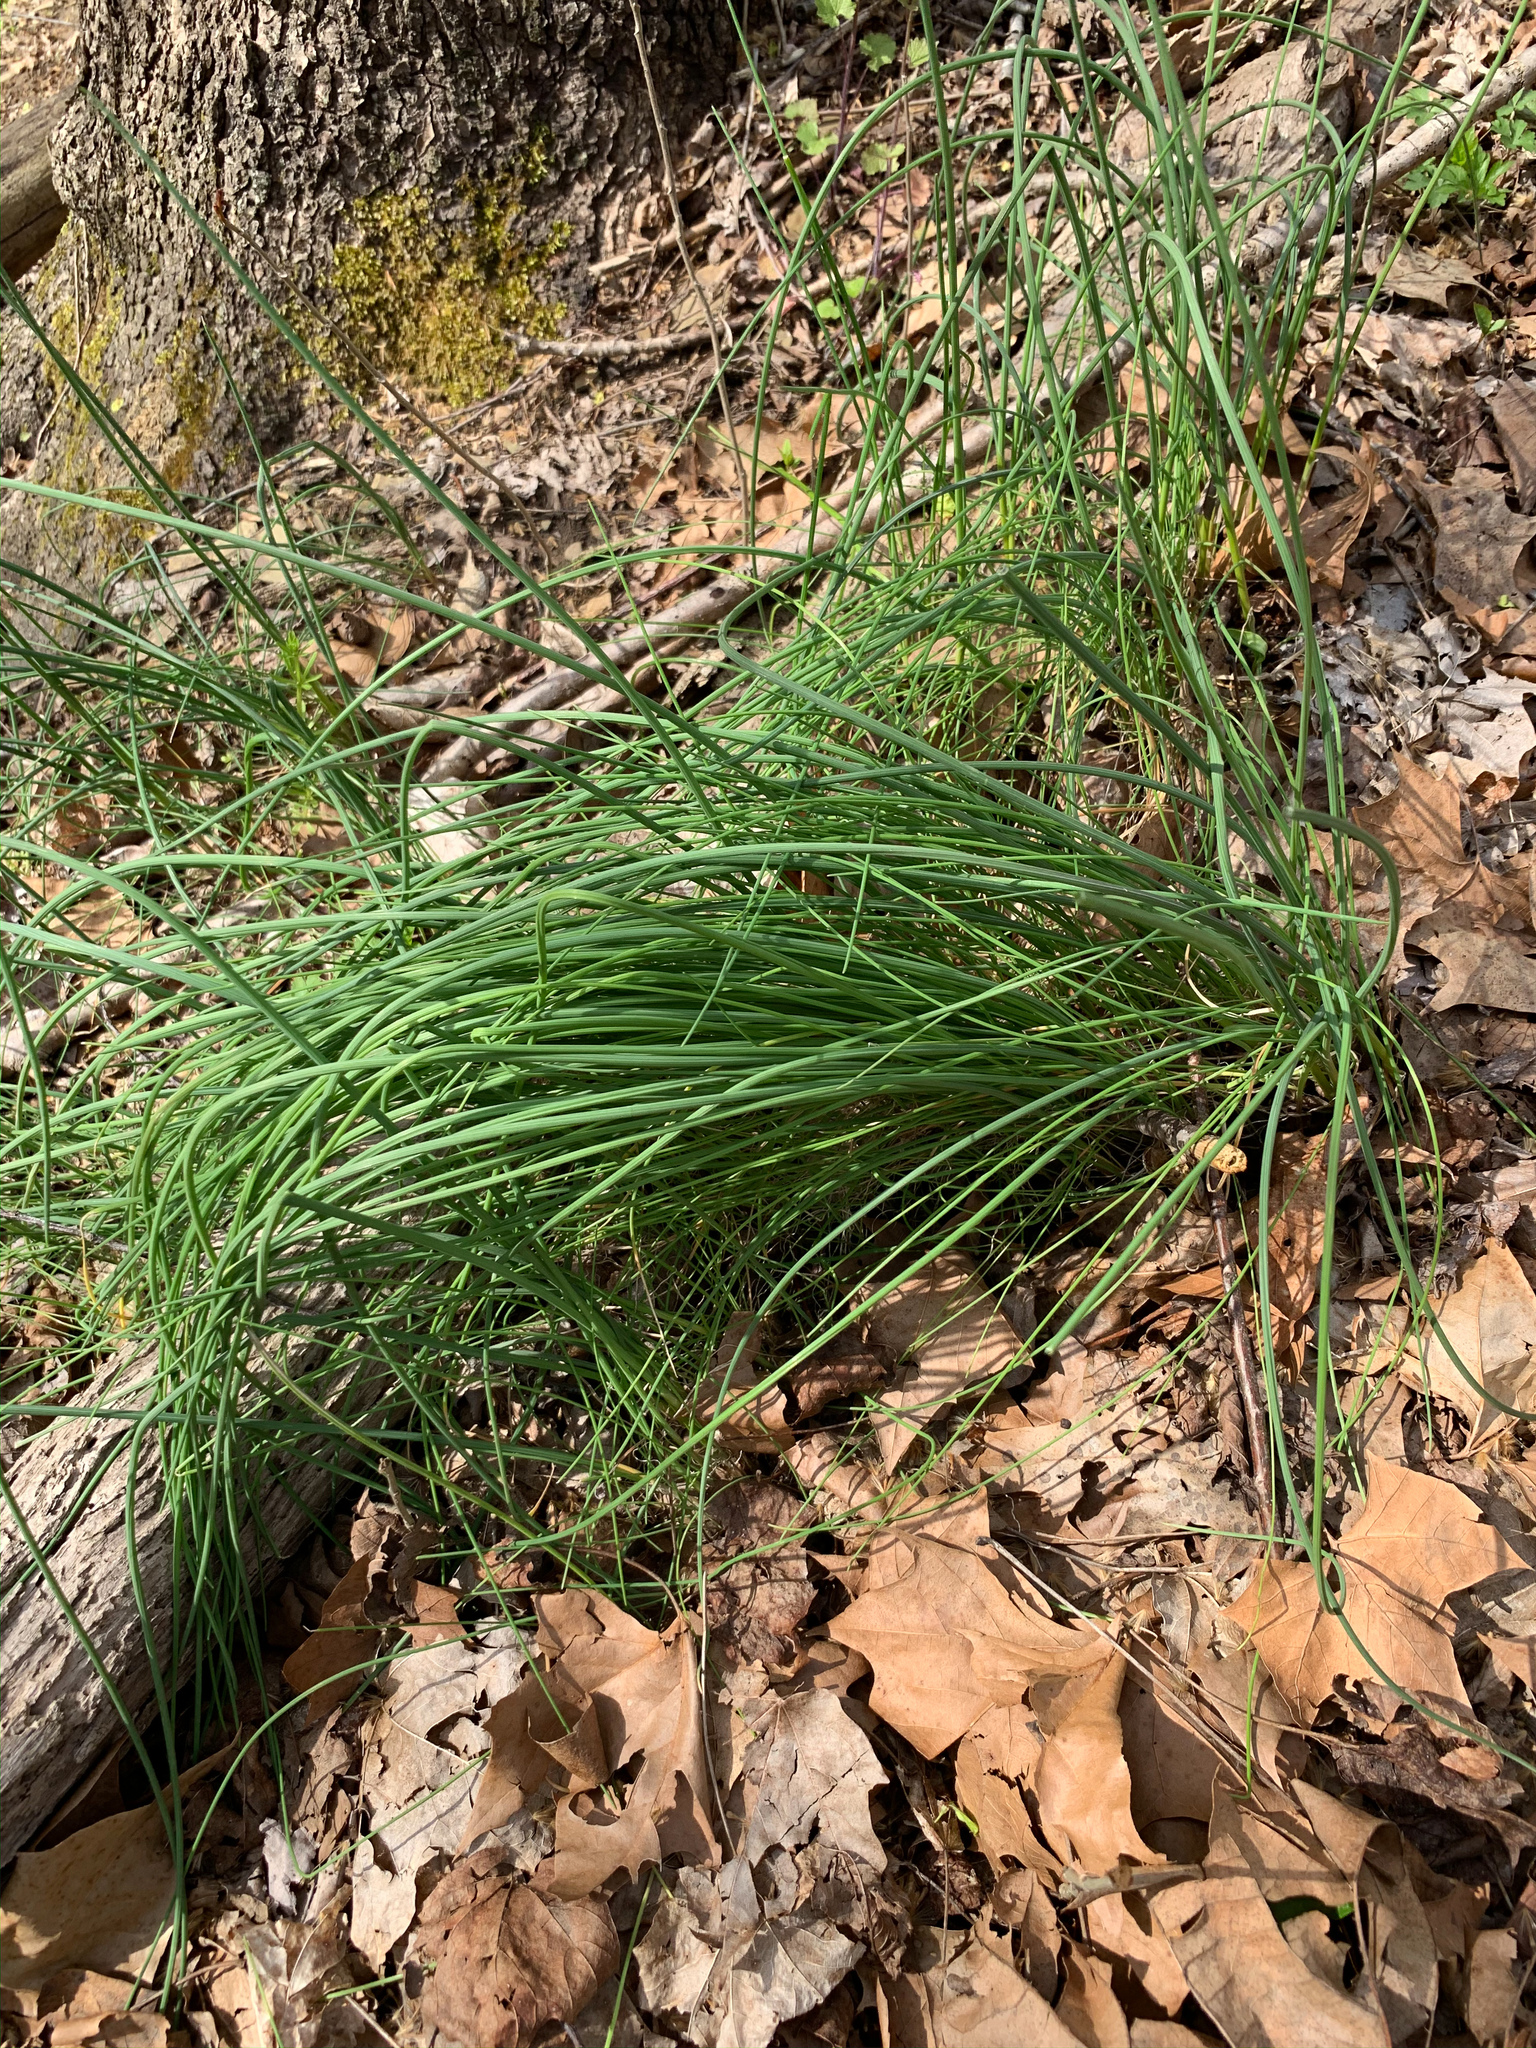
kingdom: Plantae
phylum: Tracheophyta
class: Liliopsida
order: Asparagales
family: Amaryllidaceae
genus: Allium
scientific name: Allium vineale
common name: Crow garlic
